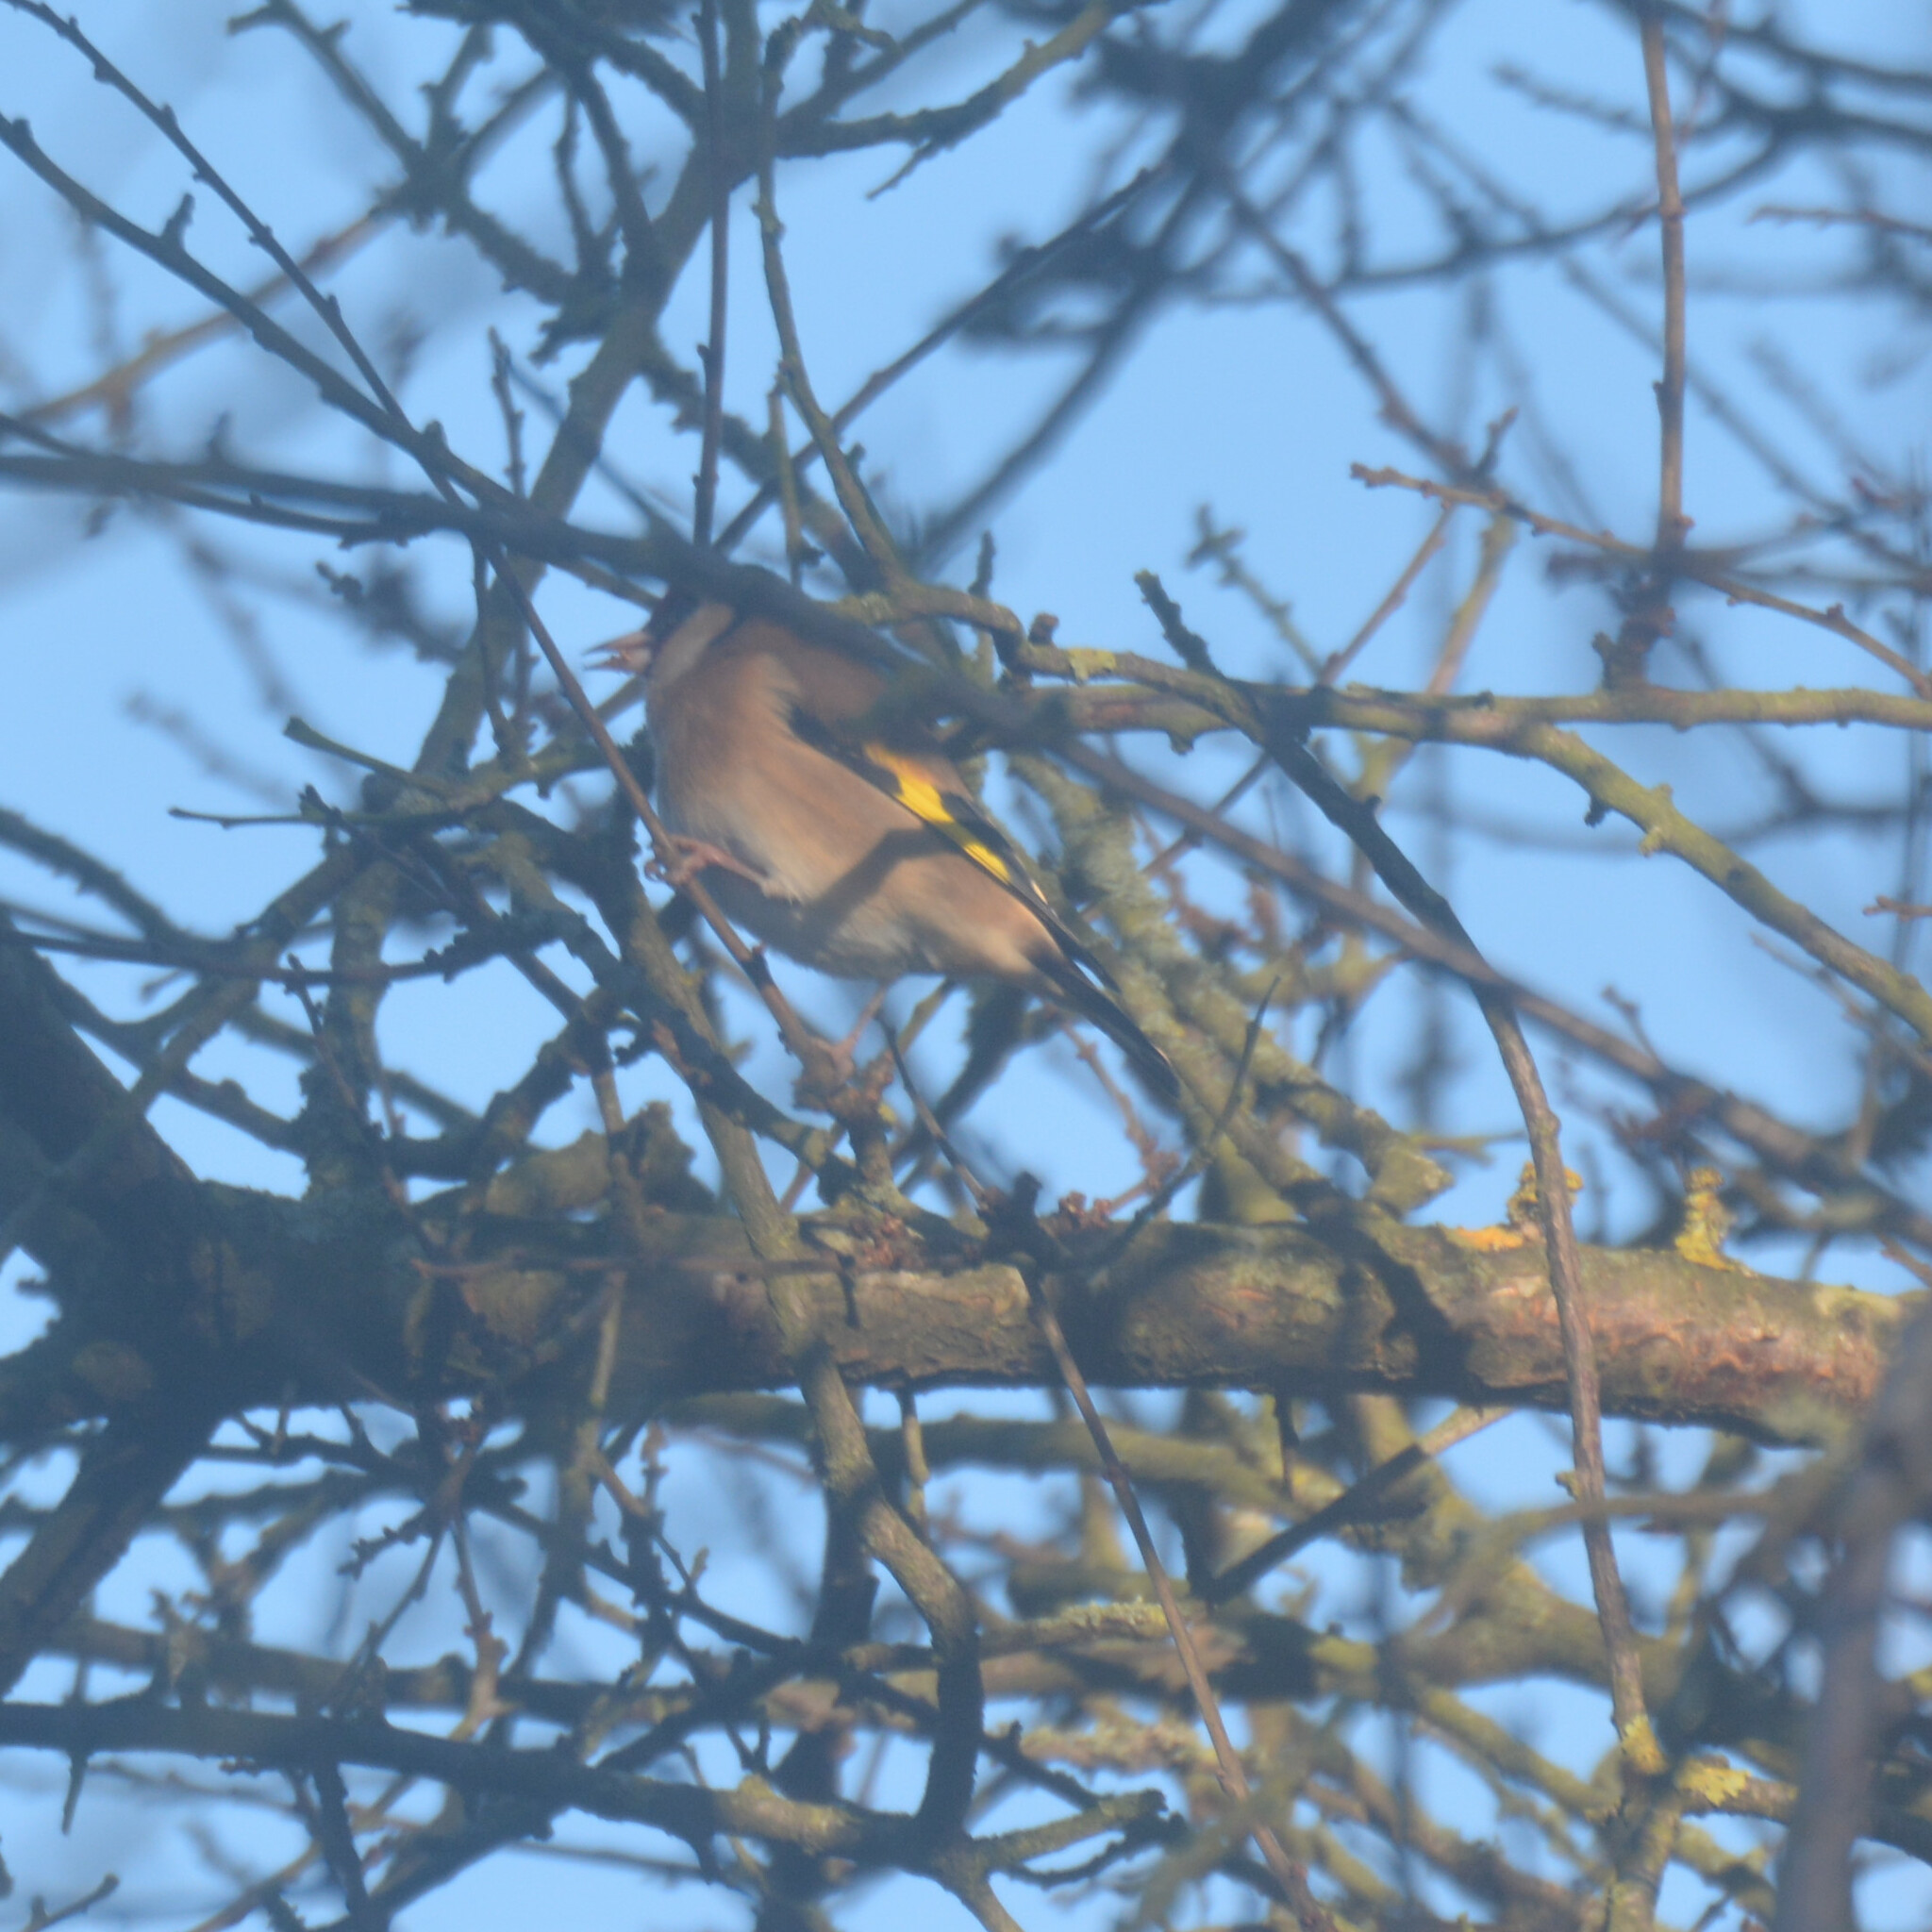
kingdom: Animalia
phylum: Chordata
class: Aves
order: Passeriformes
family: Fringillidae
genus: Carduelis
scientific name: Carduelis carduelis
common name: European goldfinch
